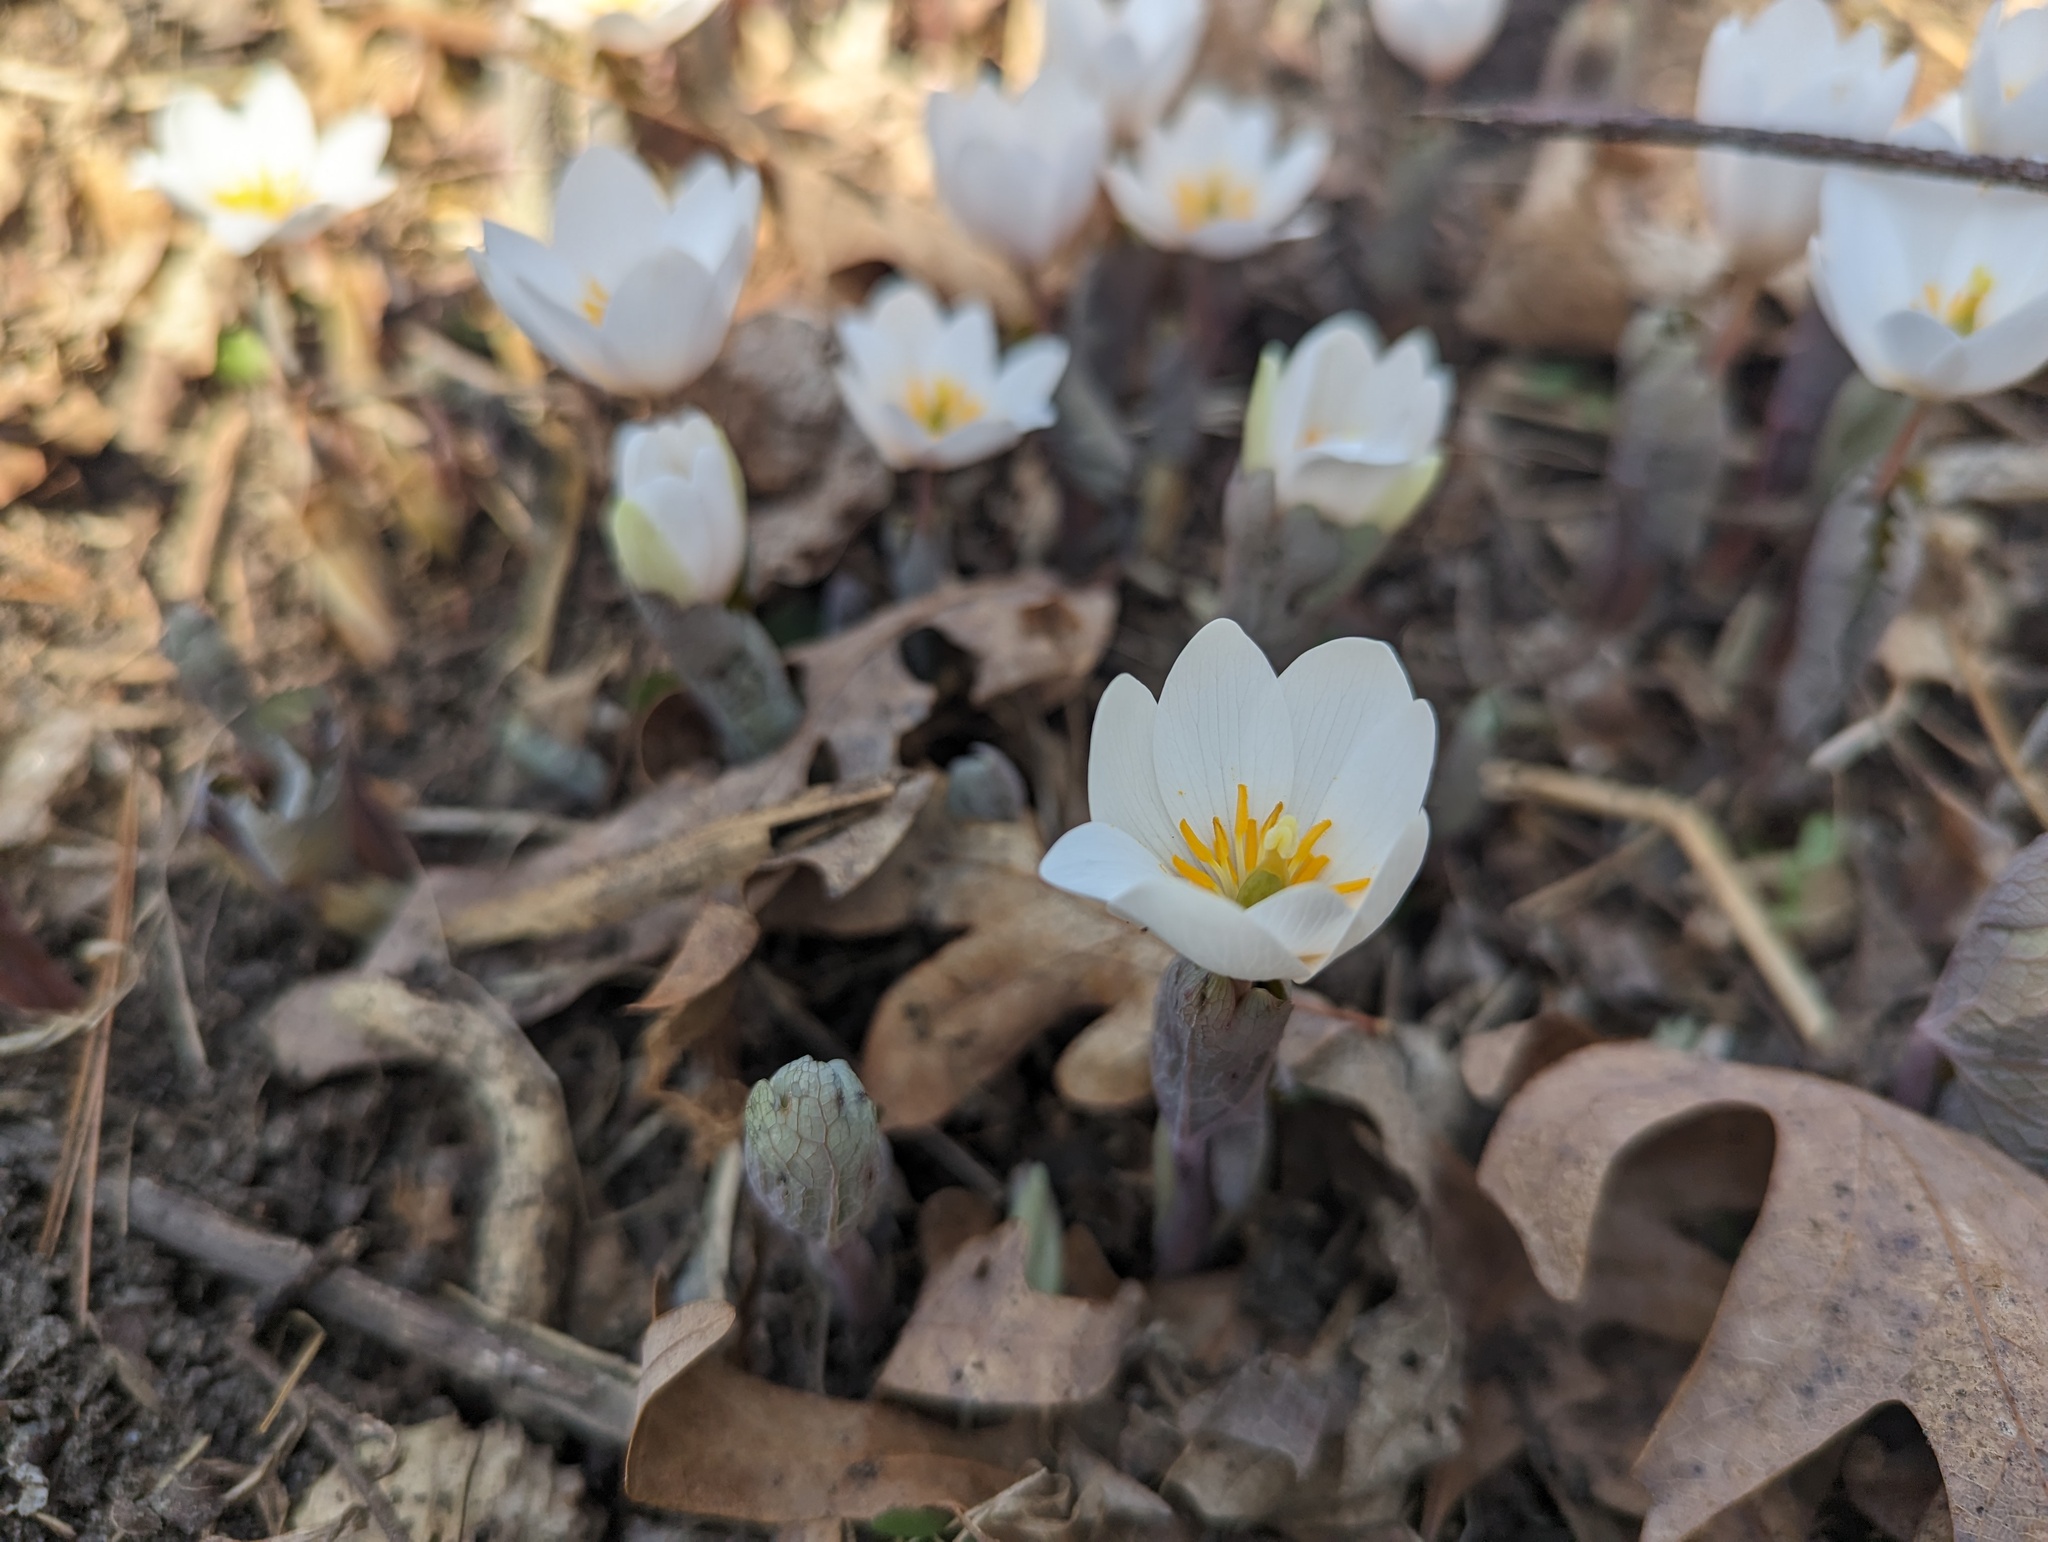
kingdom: Plantae
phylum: Tracheophyta
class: Magnoliopsida
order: Ranunculales
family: Papaveraceae
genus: Sanguinaria
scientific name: Sanguinaria canadensis
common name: Bloodroot
